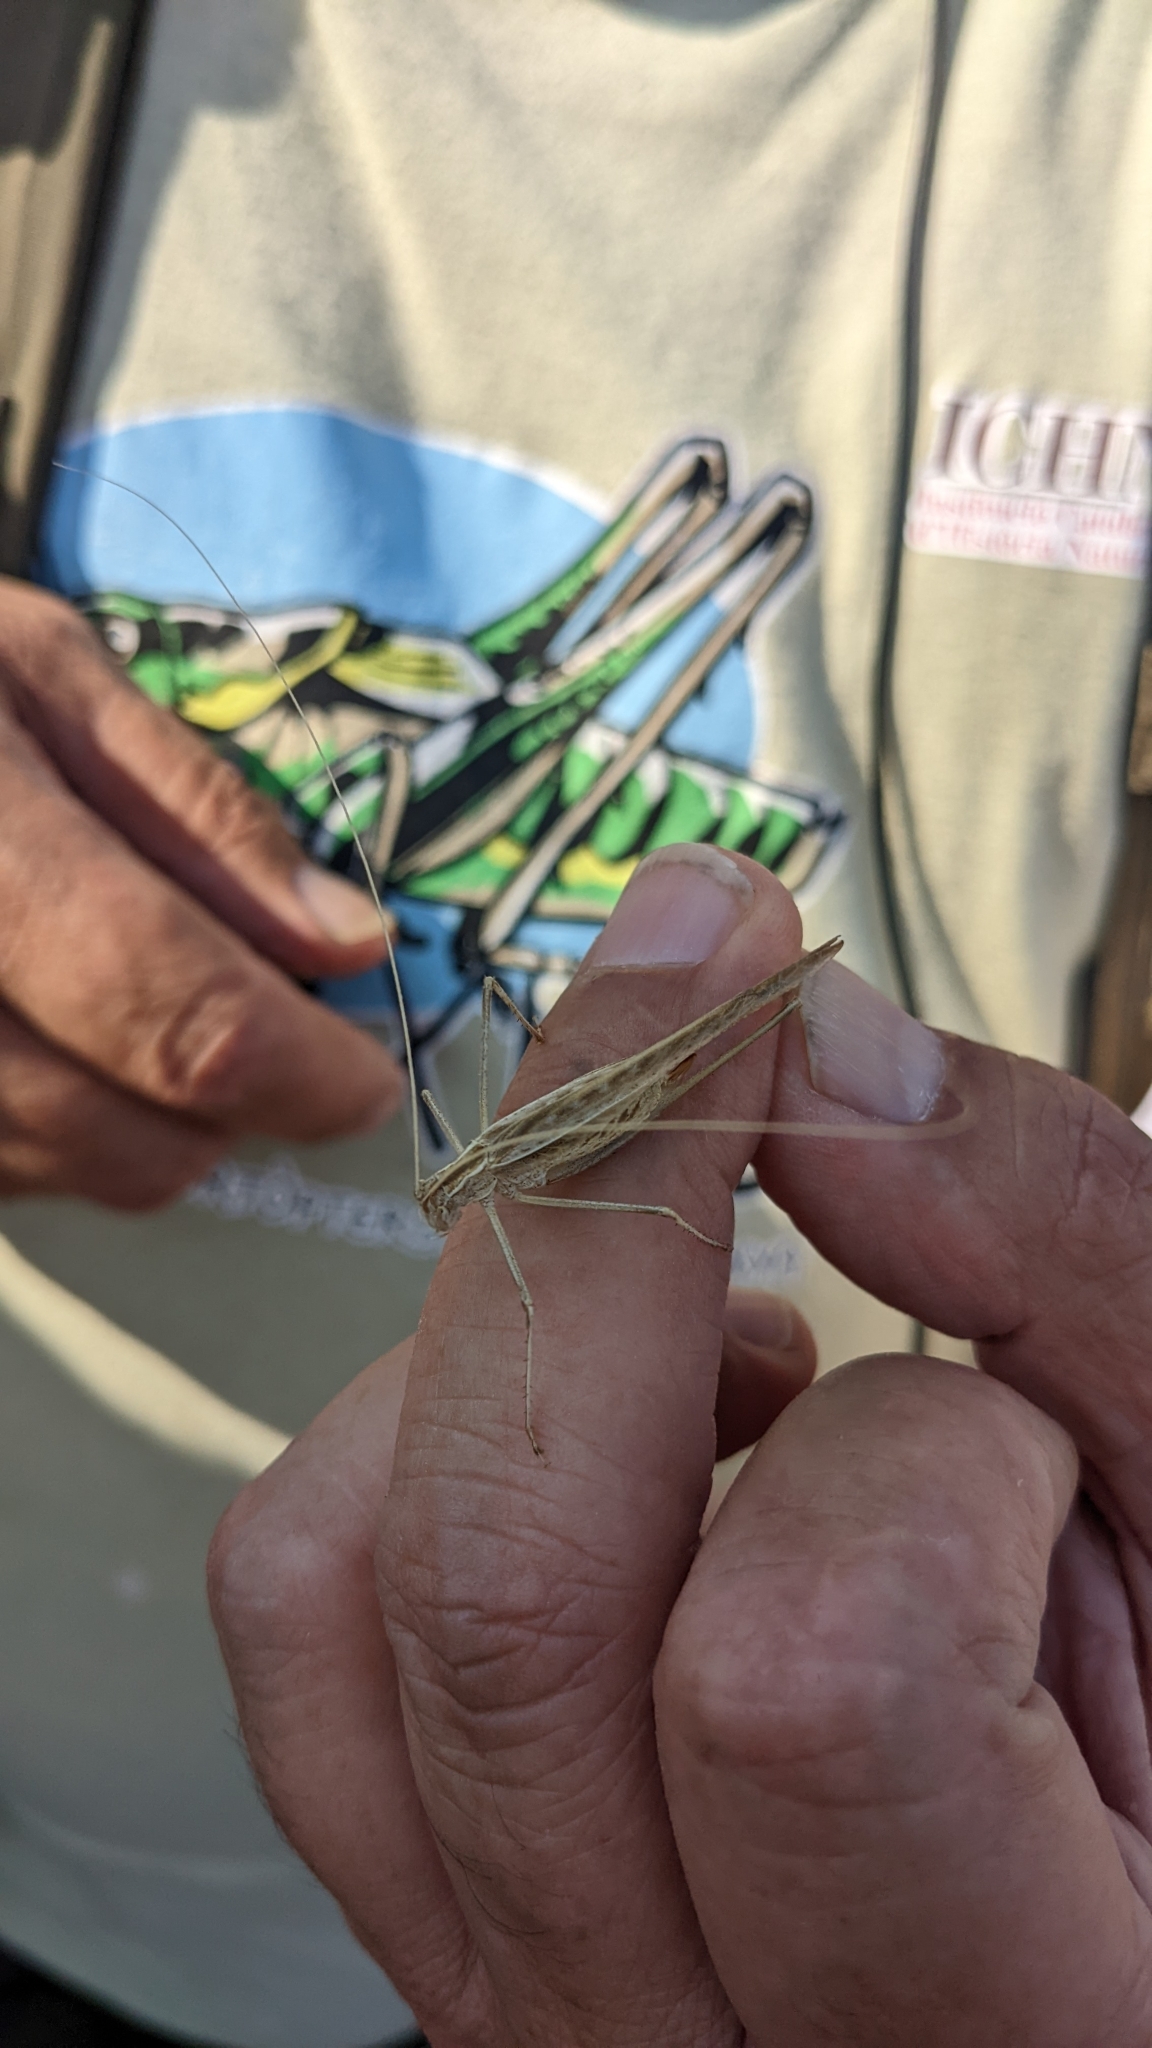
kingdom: Animalia
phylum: Arthropoda
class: Insecta
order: Orthoptera
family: Tettigoniidae
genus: Tylopsis
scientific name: Tylopsis lilifolia
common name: Lily bush-cricket
